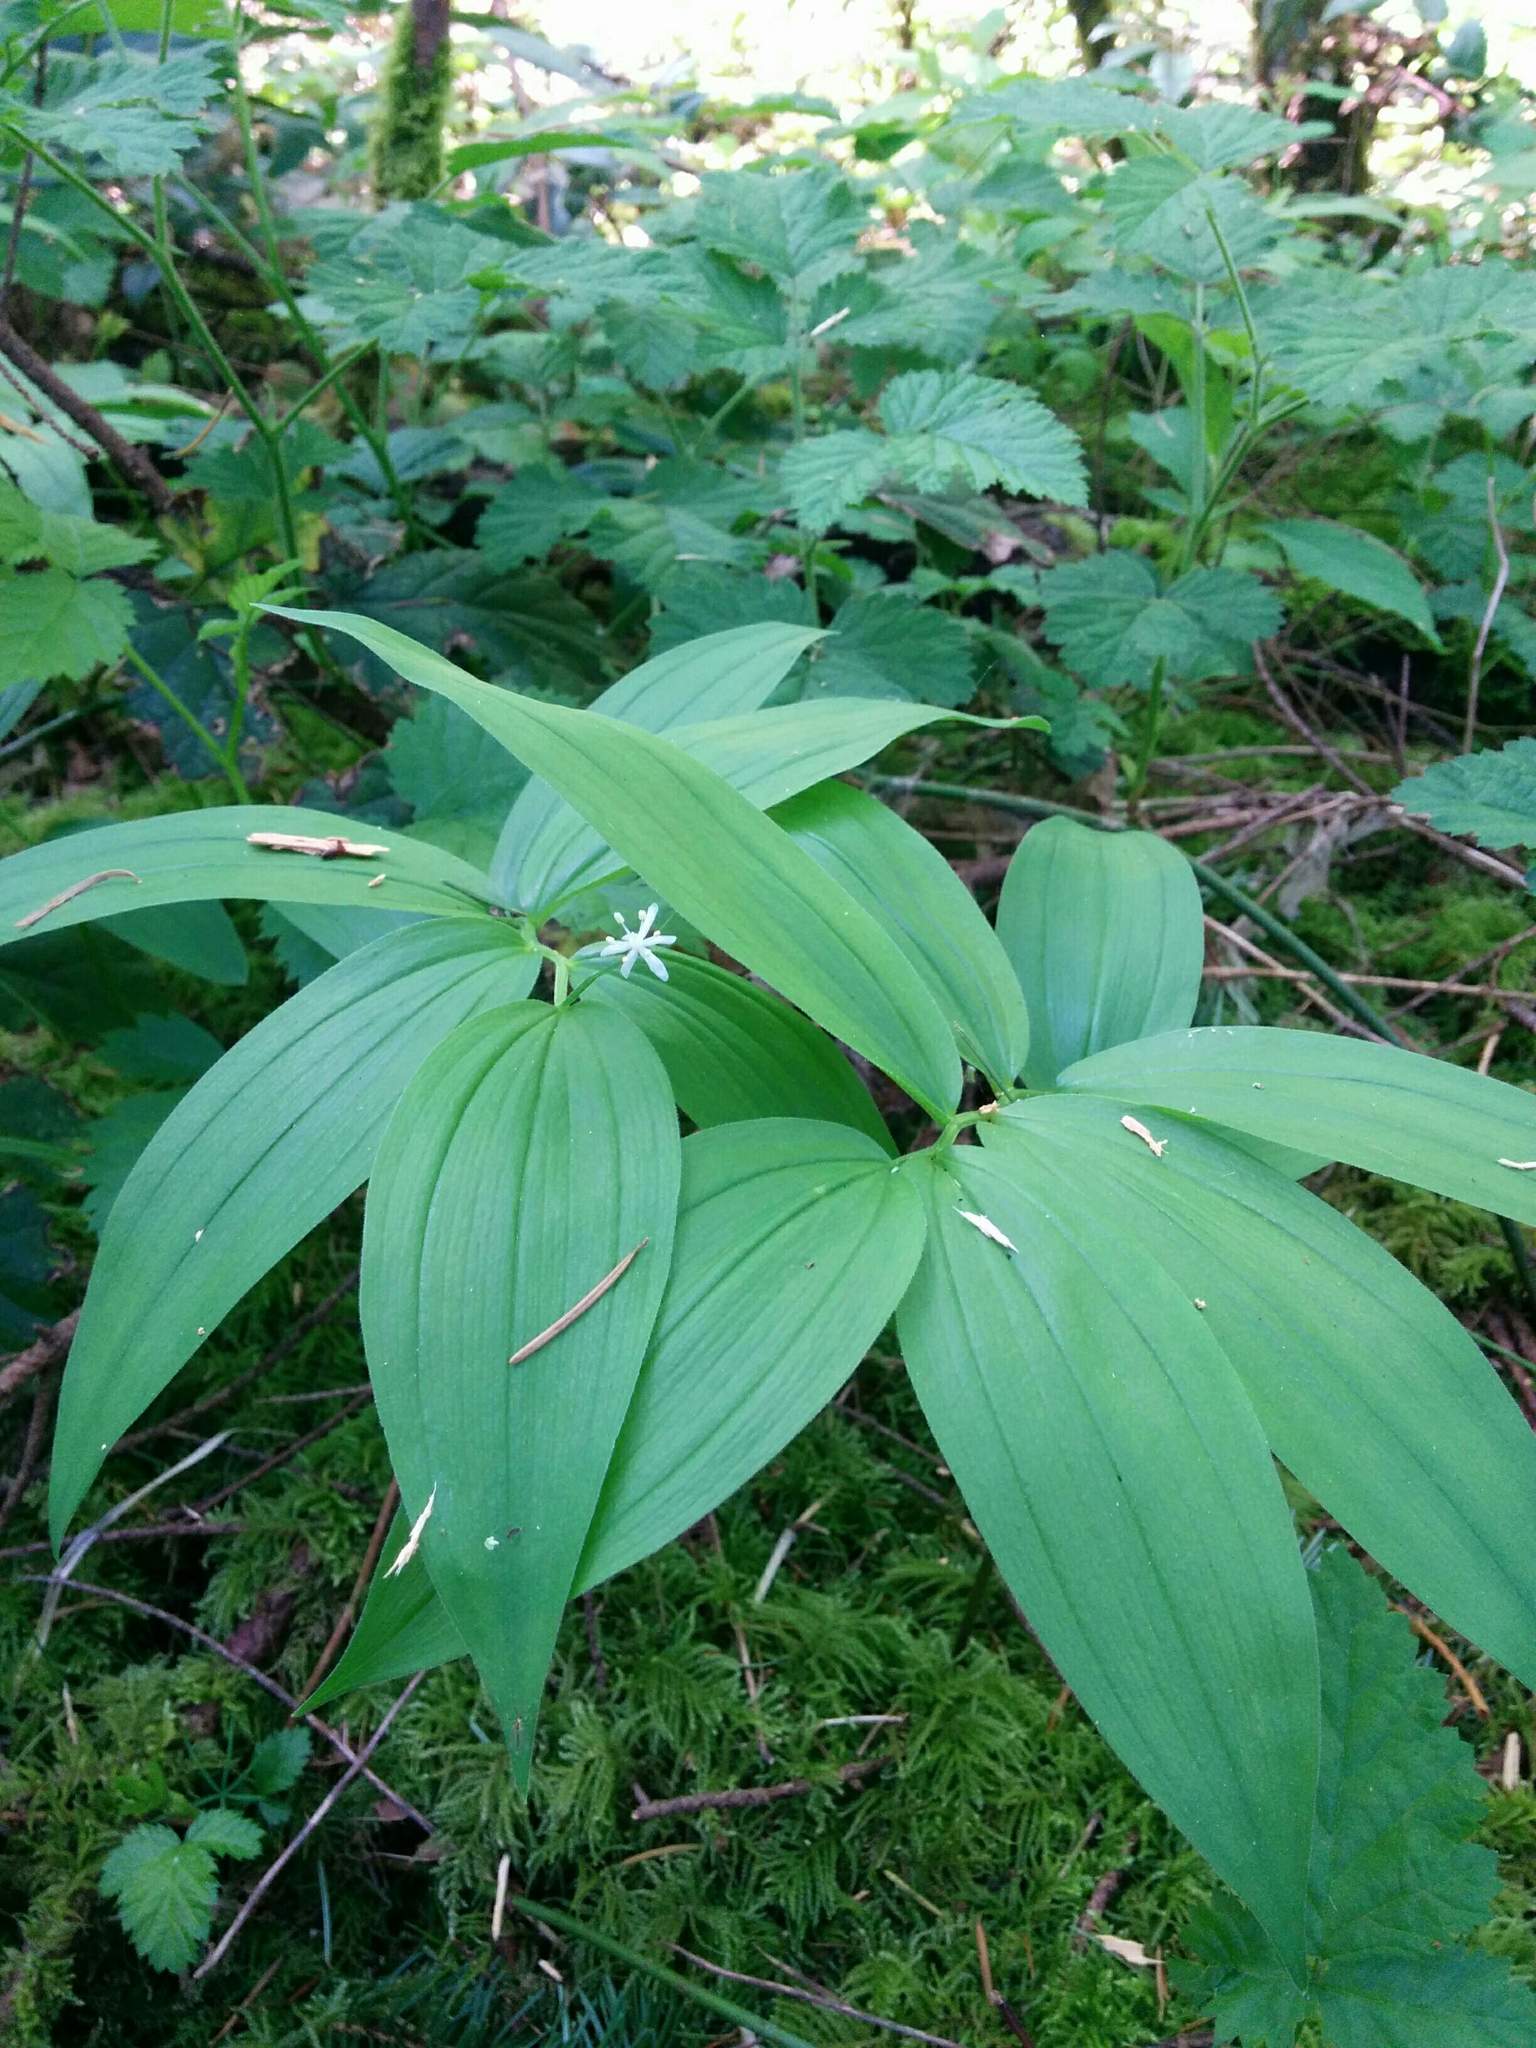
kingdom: Plantae
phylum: Tracheophyta
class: Liliopsida
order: Asparagales
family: Asparagaceae
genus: Maianthemum
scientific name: Maianthemum stellatum
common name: Little false solomon's seal
